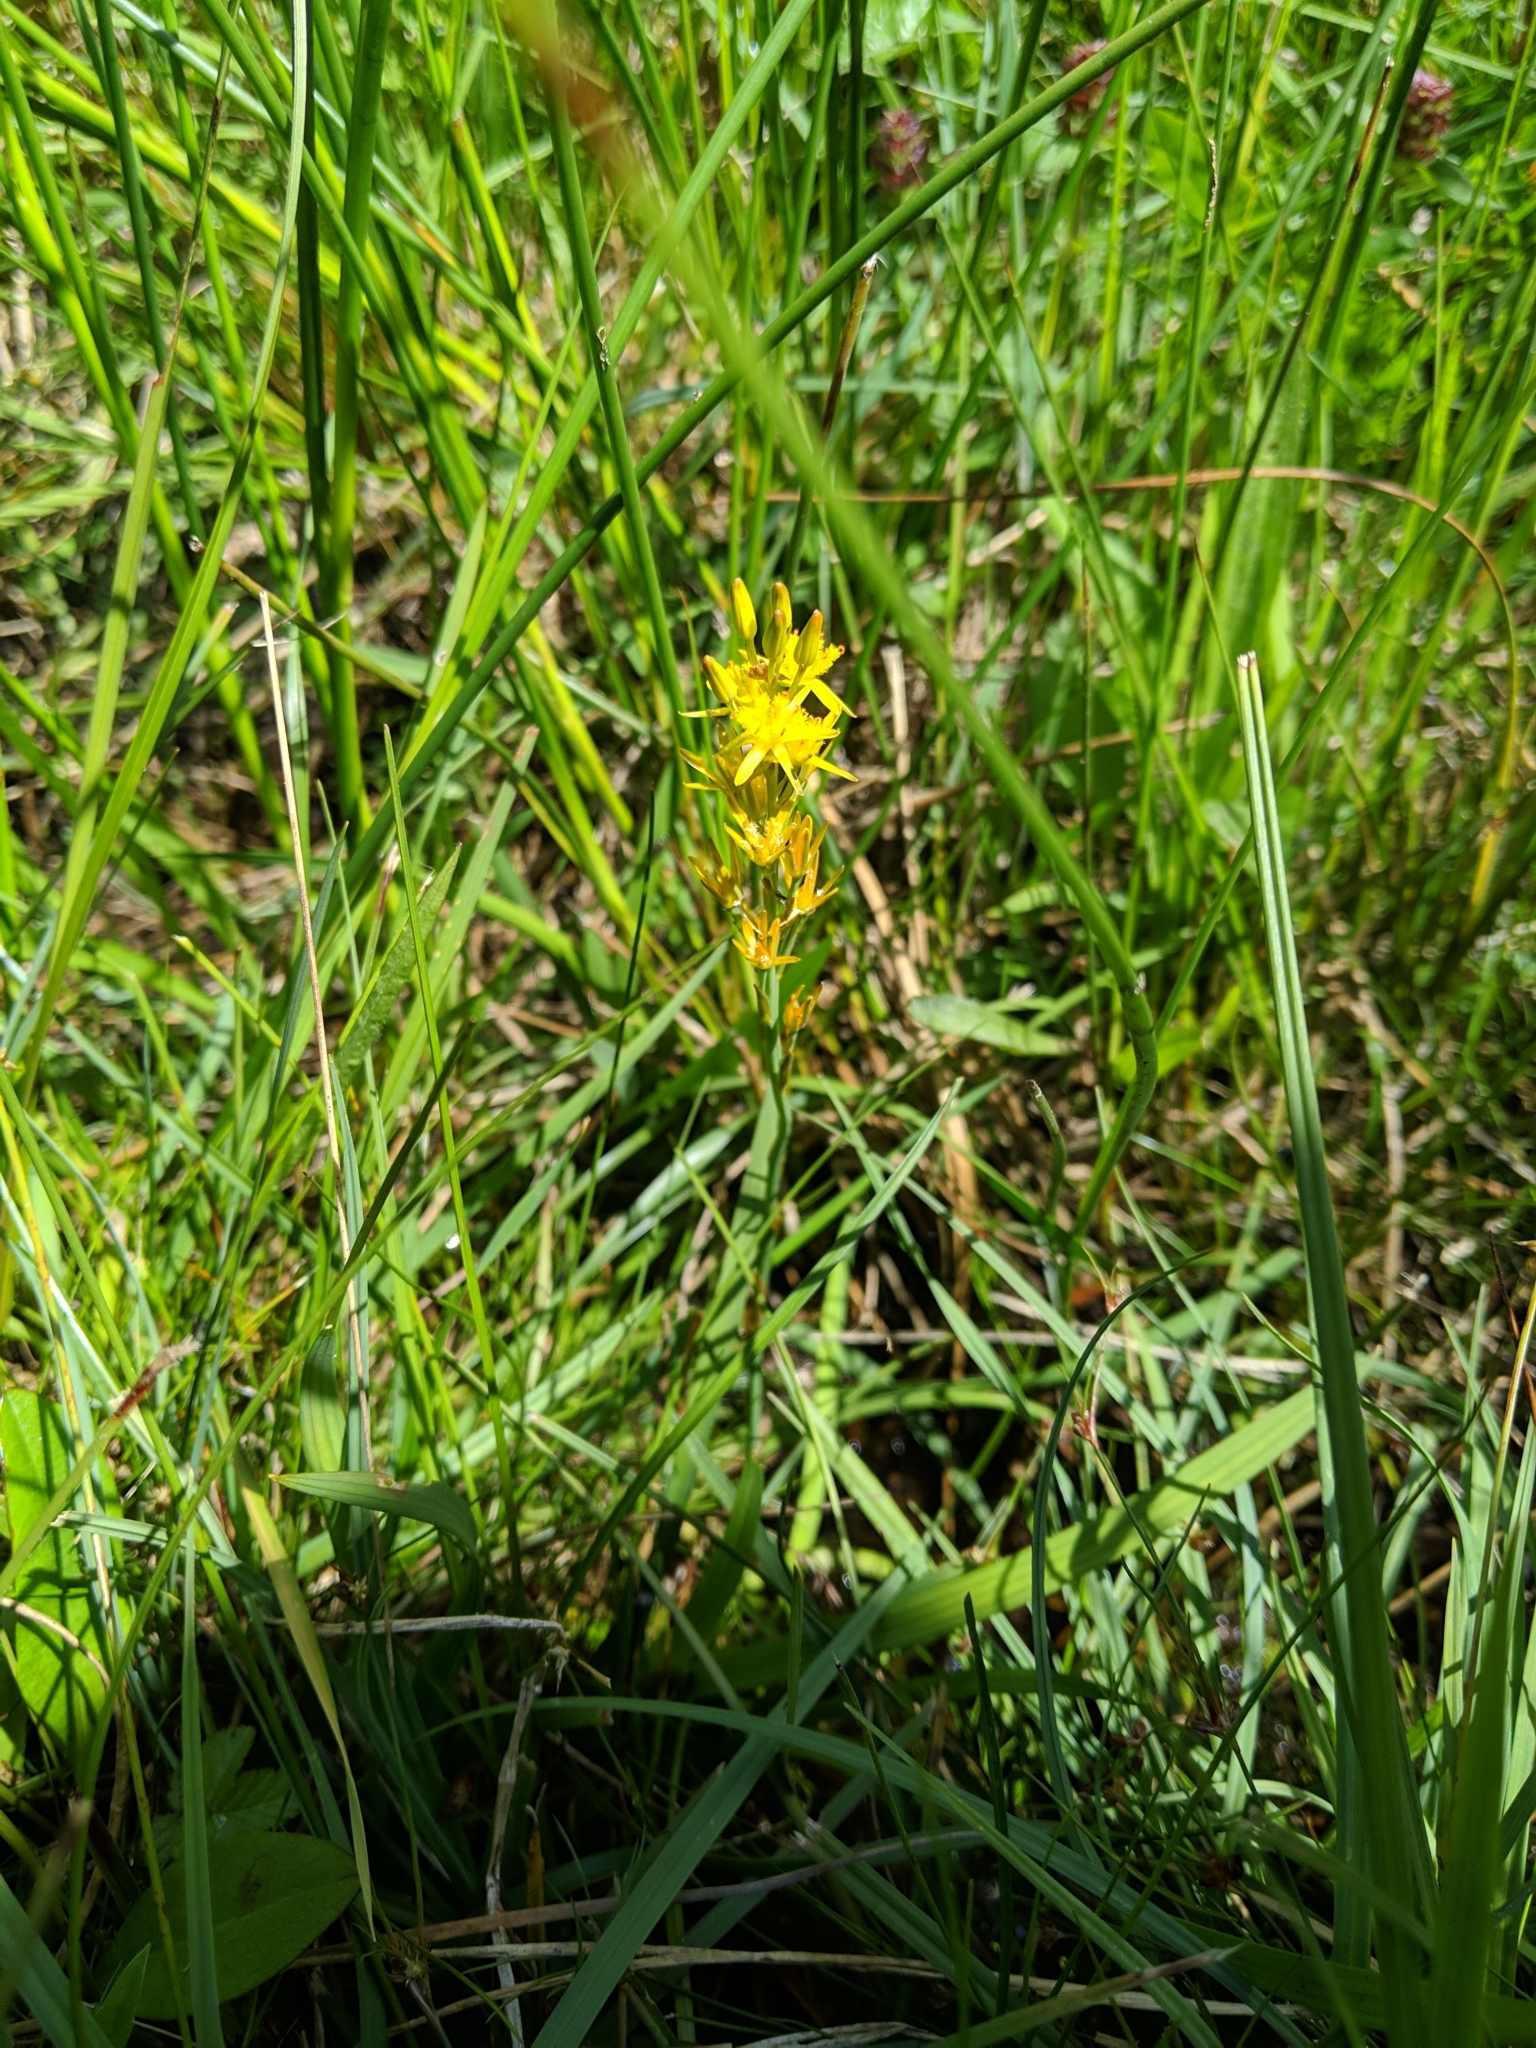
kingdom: Plantae
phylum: Tracheophyta
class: Liliopsida
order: Dioscoreales
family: Nartheciaceae
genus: Narthecium
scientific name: Narthecium ossifragum
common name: Bog asphodel
